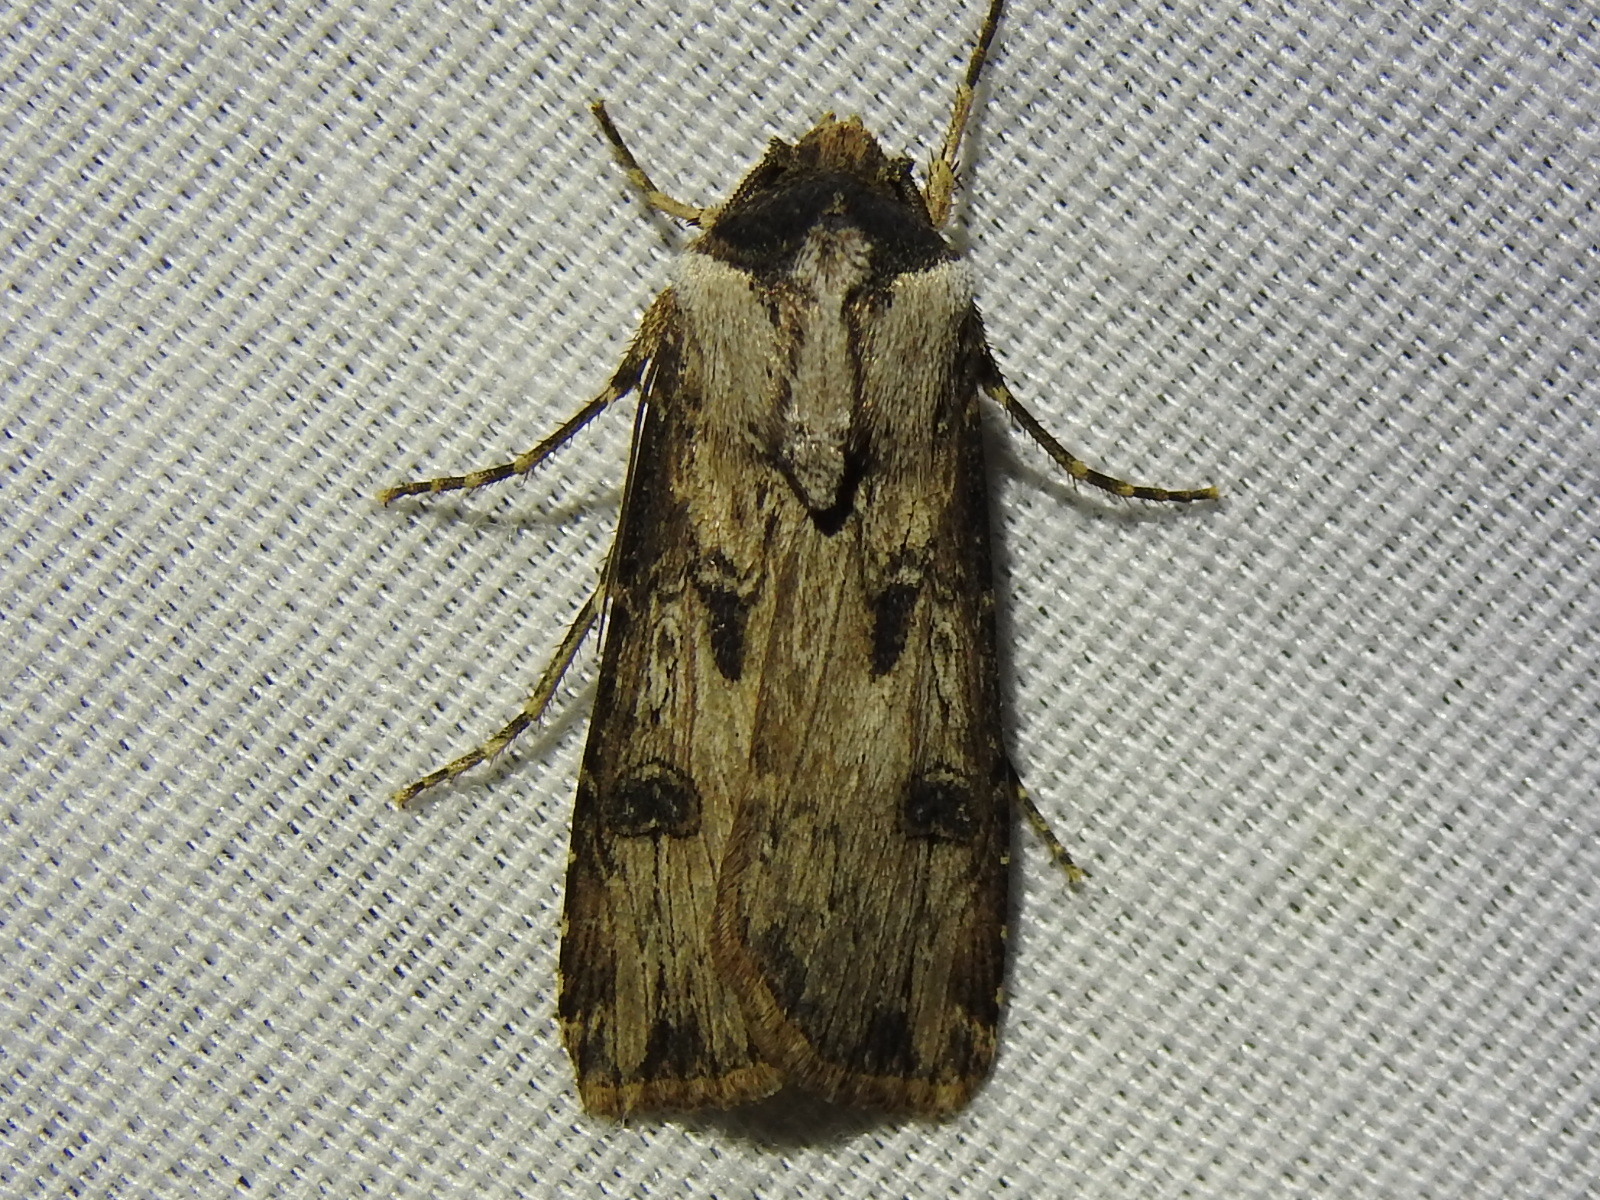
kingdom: Animalia
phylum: Arthropoda
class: Insecta
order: Lepidoptera
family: Noctuidae
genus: Agrotis
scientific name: Agrotis malefida
